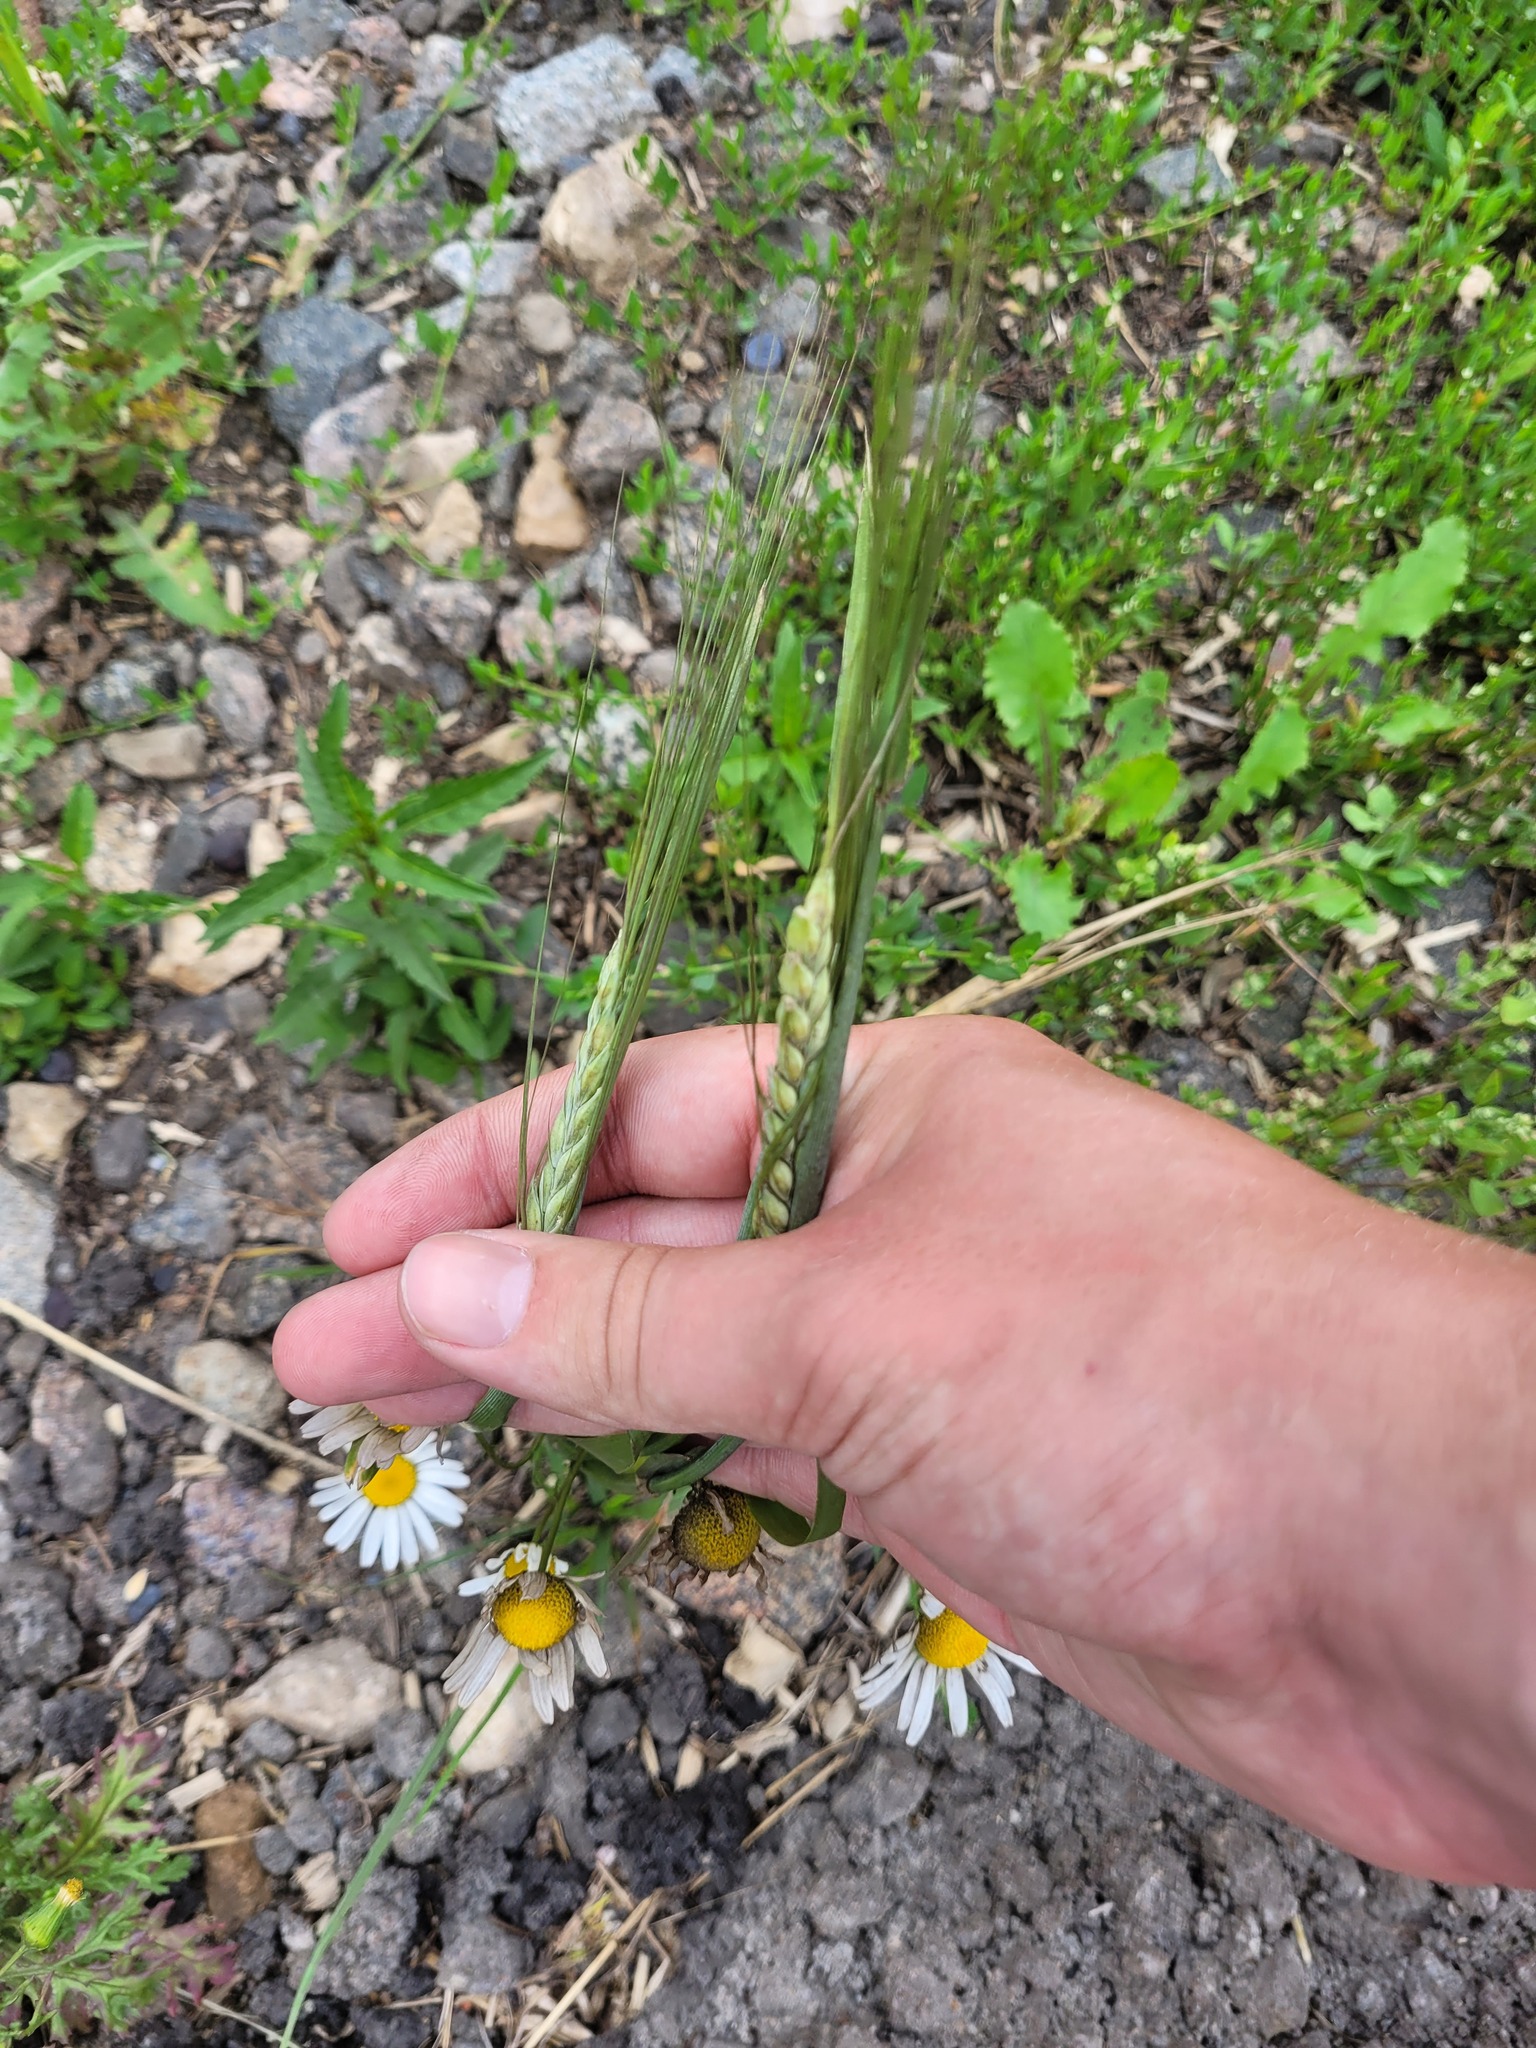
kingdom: Plantae
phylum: Tracheophyta
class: Liliopsida
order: Poales
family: Poaceae
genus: Hordeum
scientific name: Hordeum vulgare
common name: Common barley
